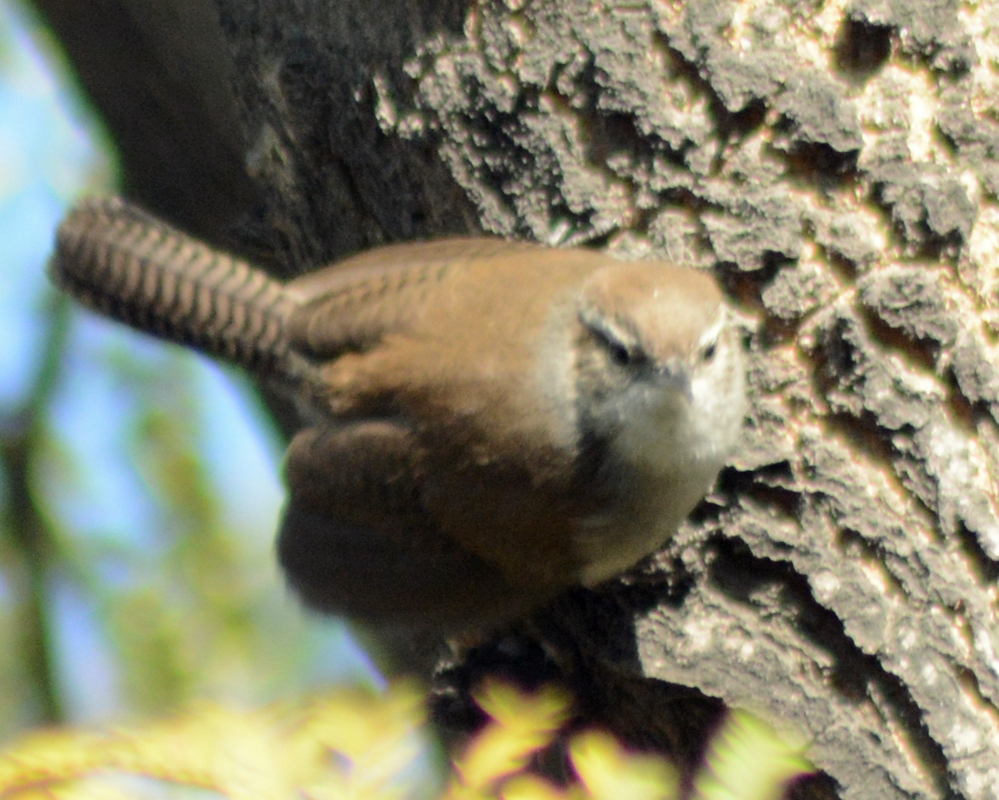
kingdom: Animalia
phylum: Chordata
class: Aves
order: Passeriformes
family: Troglodytidae
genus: Thryomanes
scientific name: Thryomanes bewickii
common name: Bewick's wren
